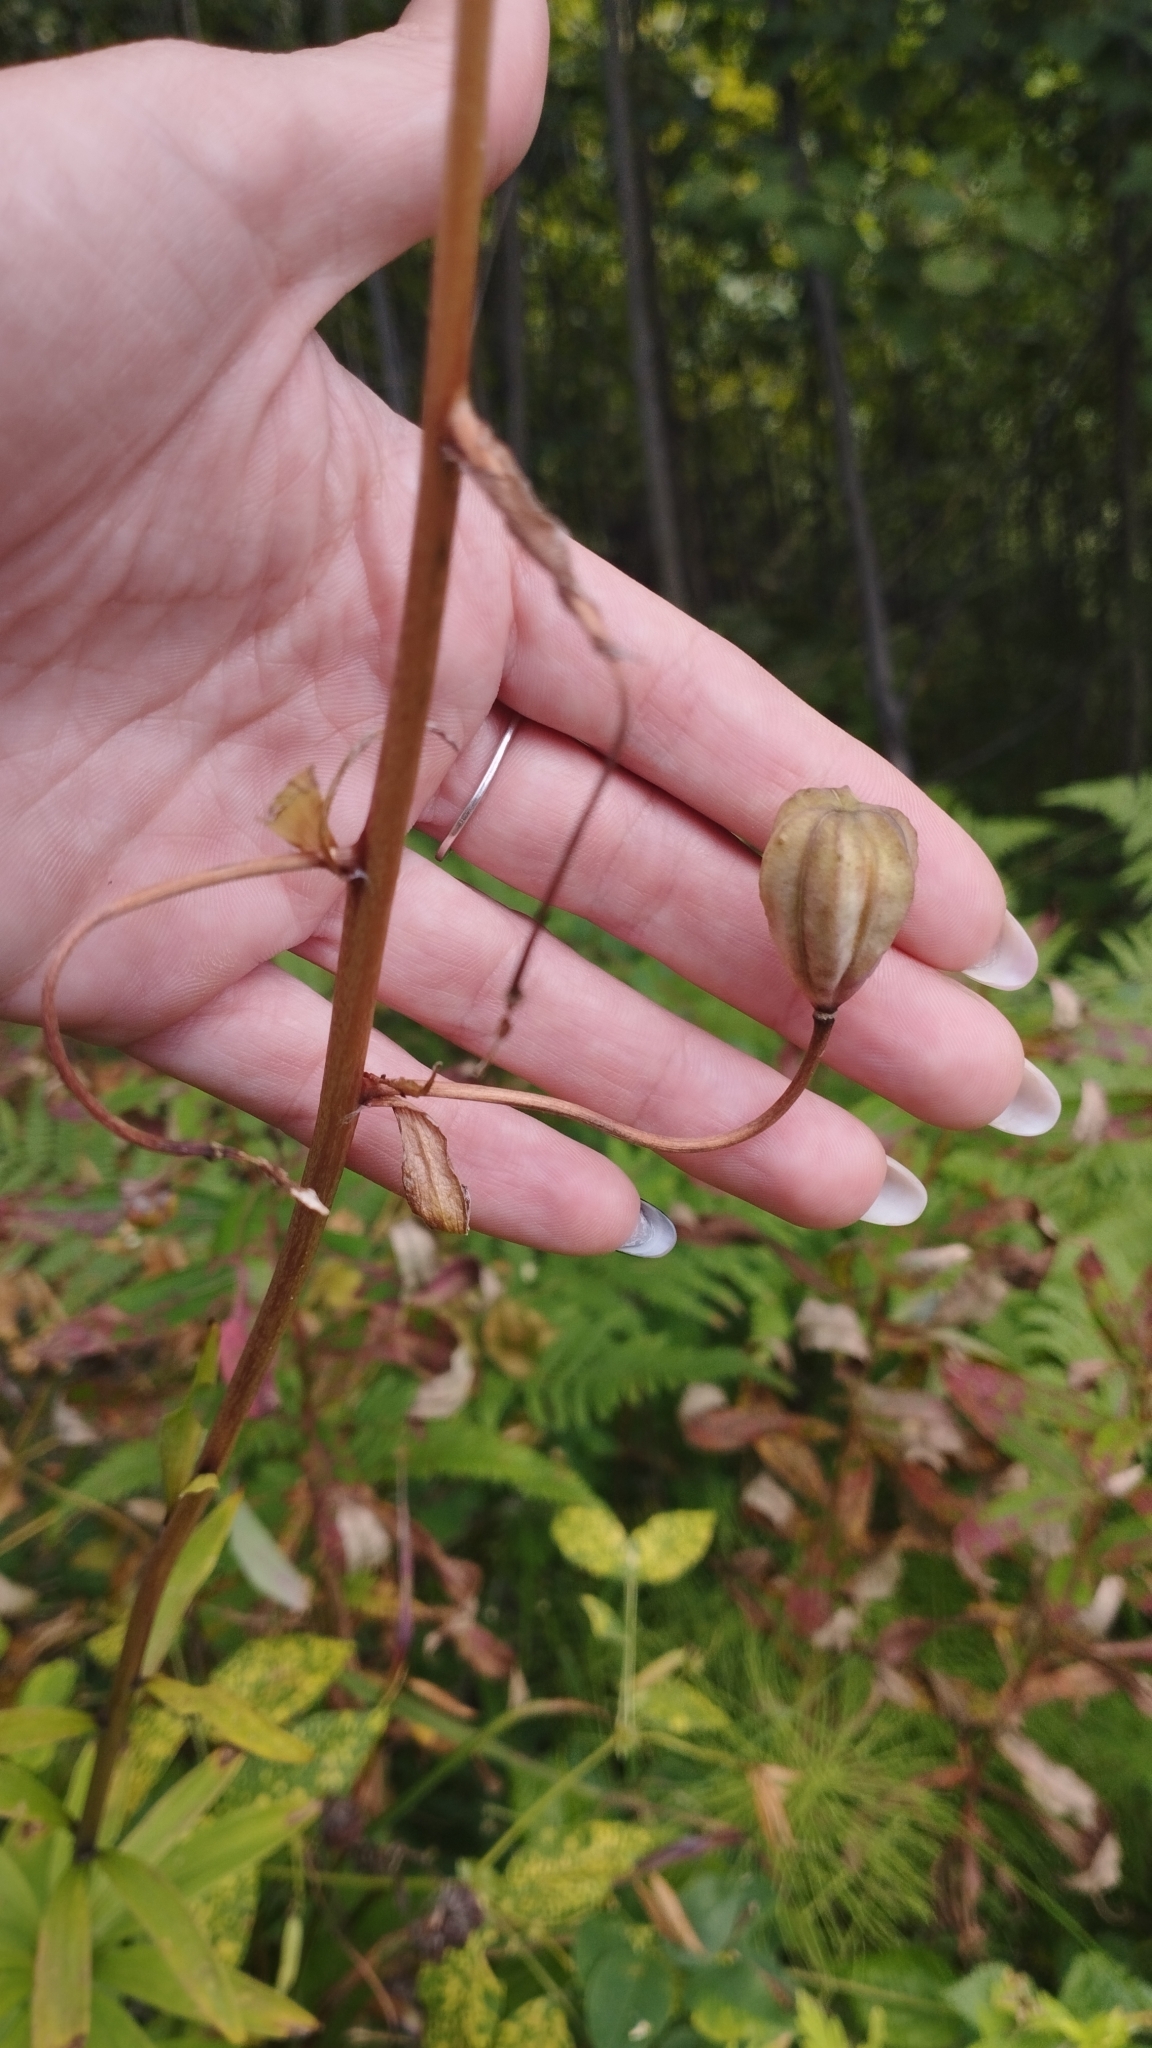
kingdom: Plantae
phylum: Tracheophyta
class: Liliopsida
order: Liliales
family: Liliaceae
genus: Lilium
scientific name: Lilium martagon
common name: Martagon lily
